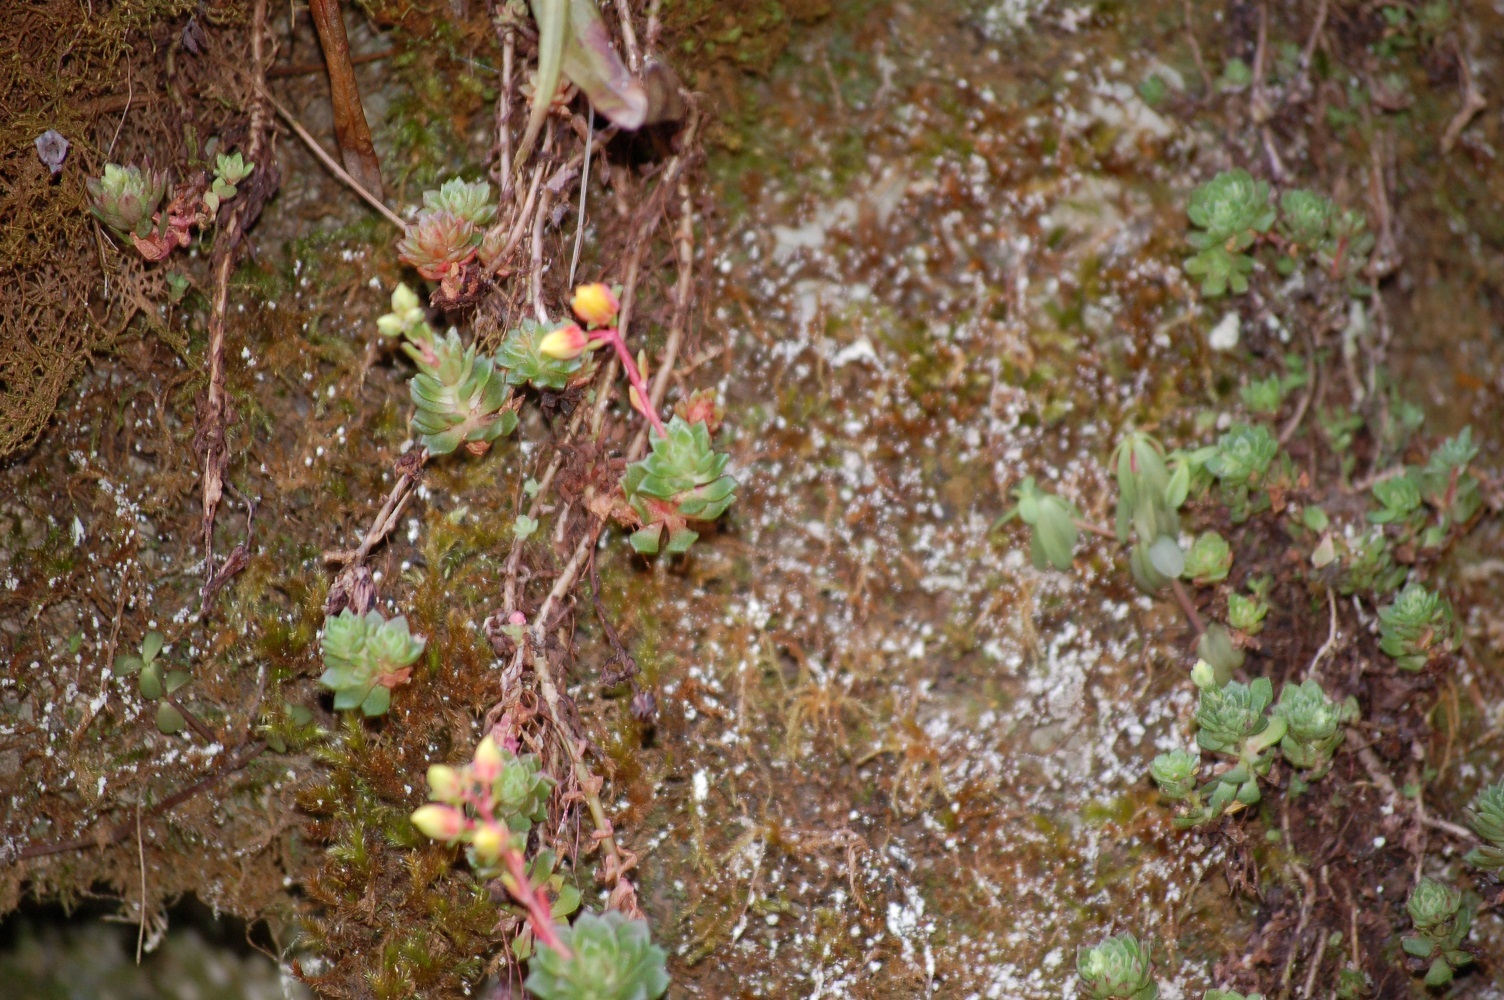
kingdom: Plantae
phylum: Tracheophyta
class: Magnoliopsida
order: Saxifragales
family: Crassulaceae
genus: Echeveria
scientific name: Echeveria bella
